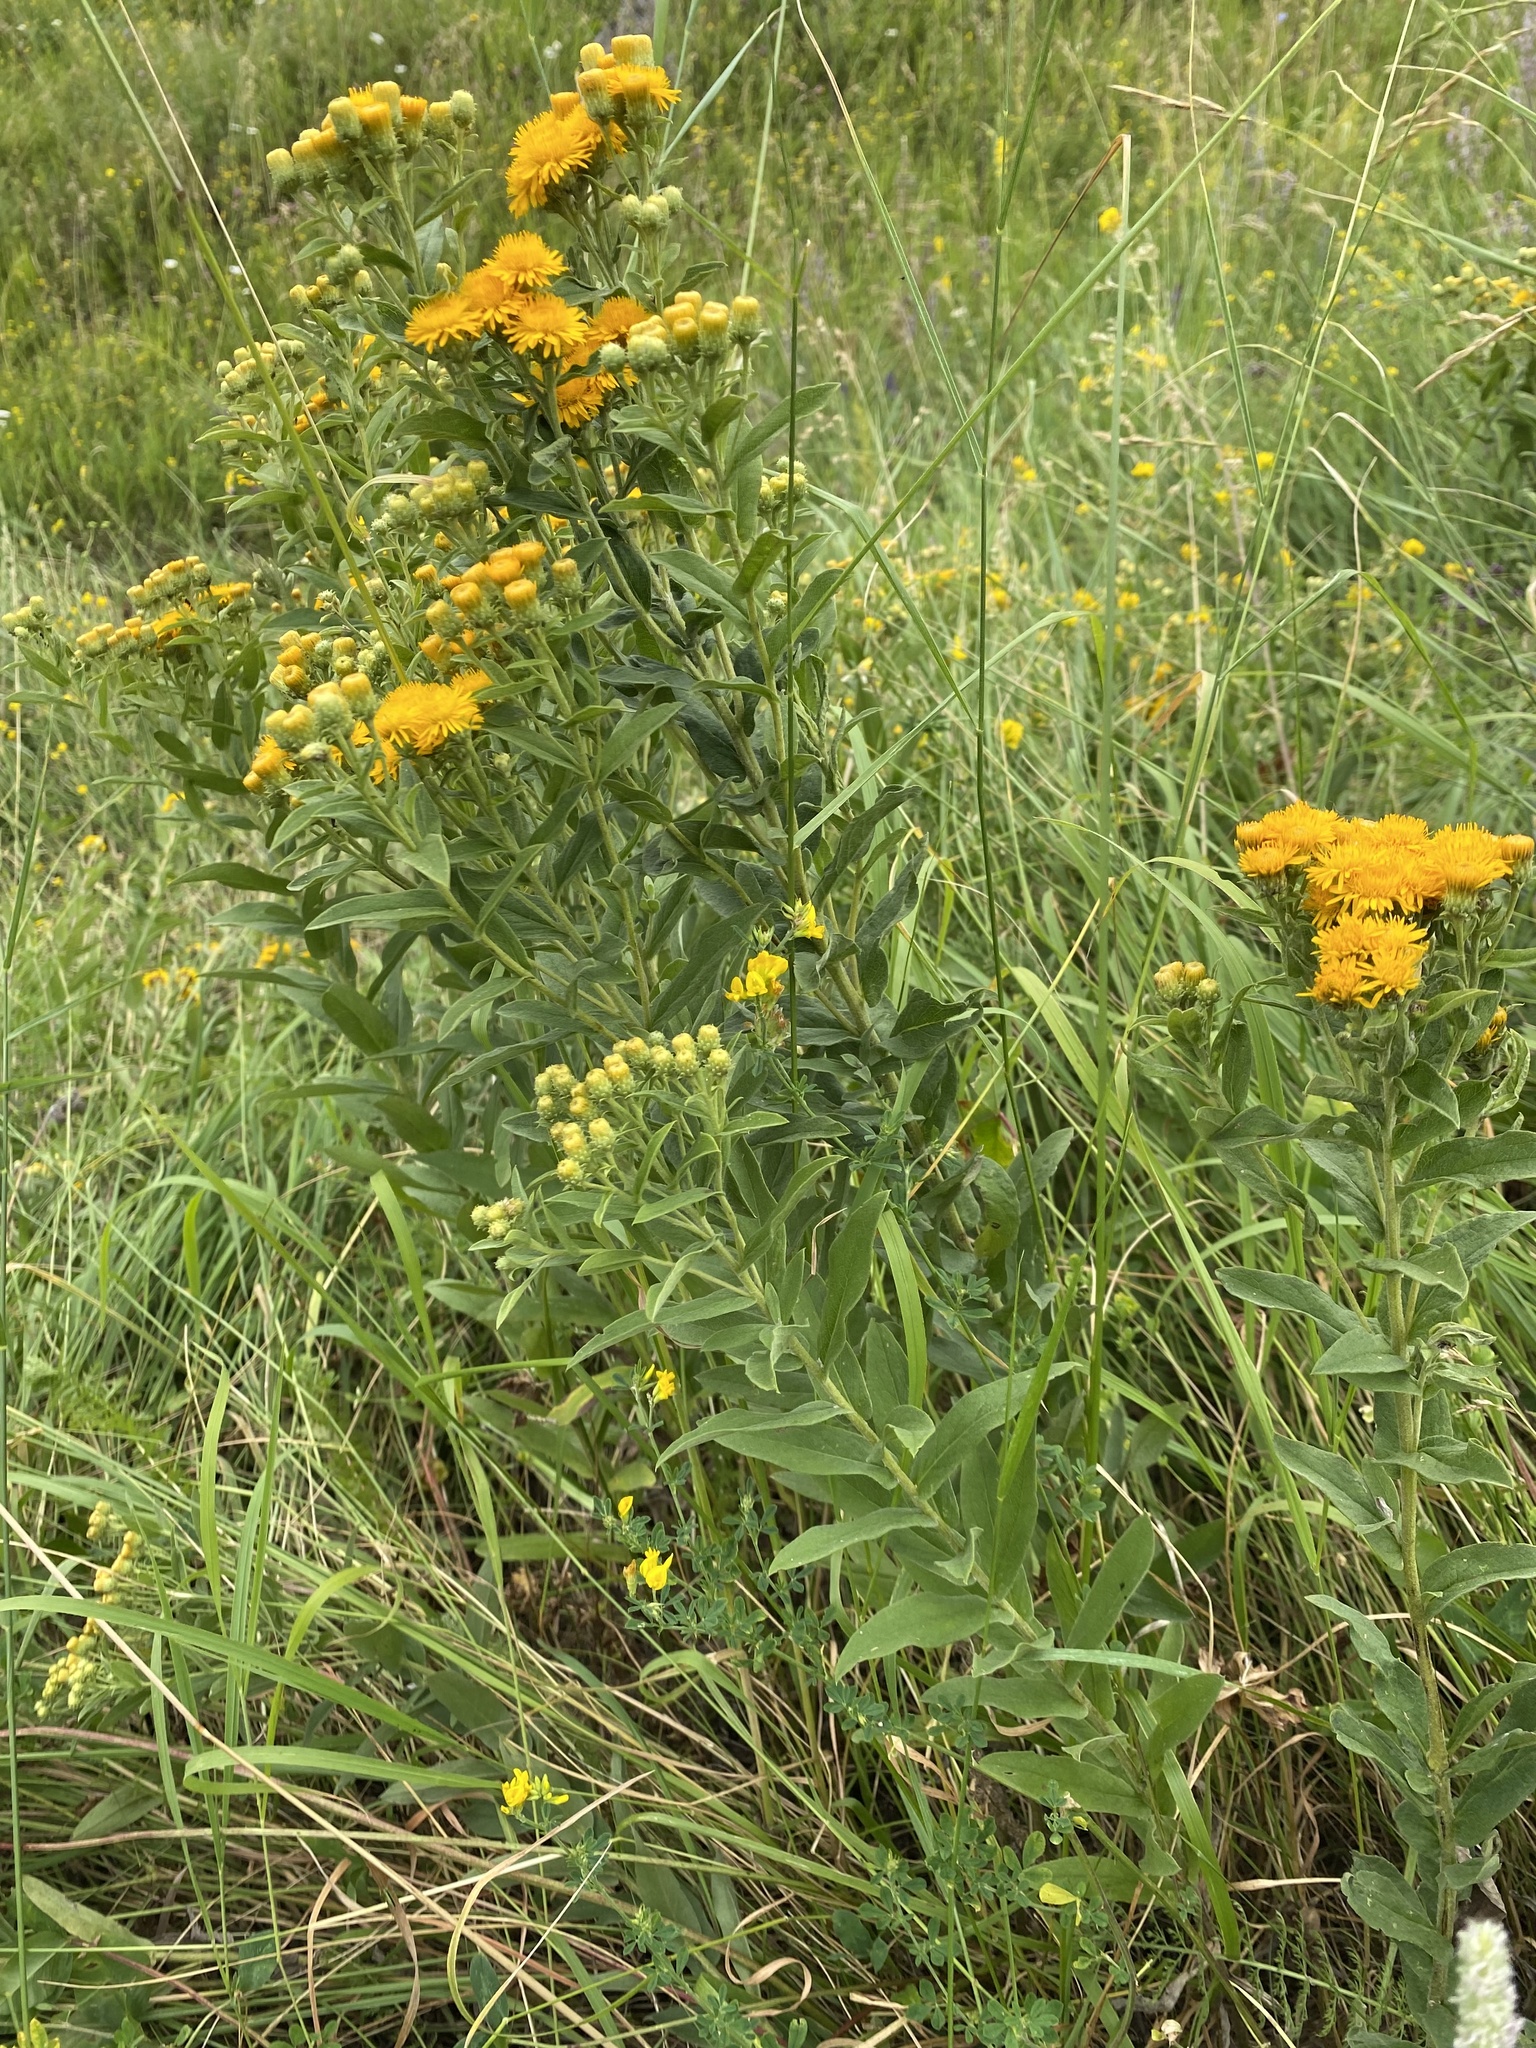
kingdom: Plantae
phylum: Tracheophyta
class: Magnoliopsida
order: Asterales
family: Asteraceae
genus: Pentanema
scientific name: Pentanema germanicum
